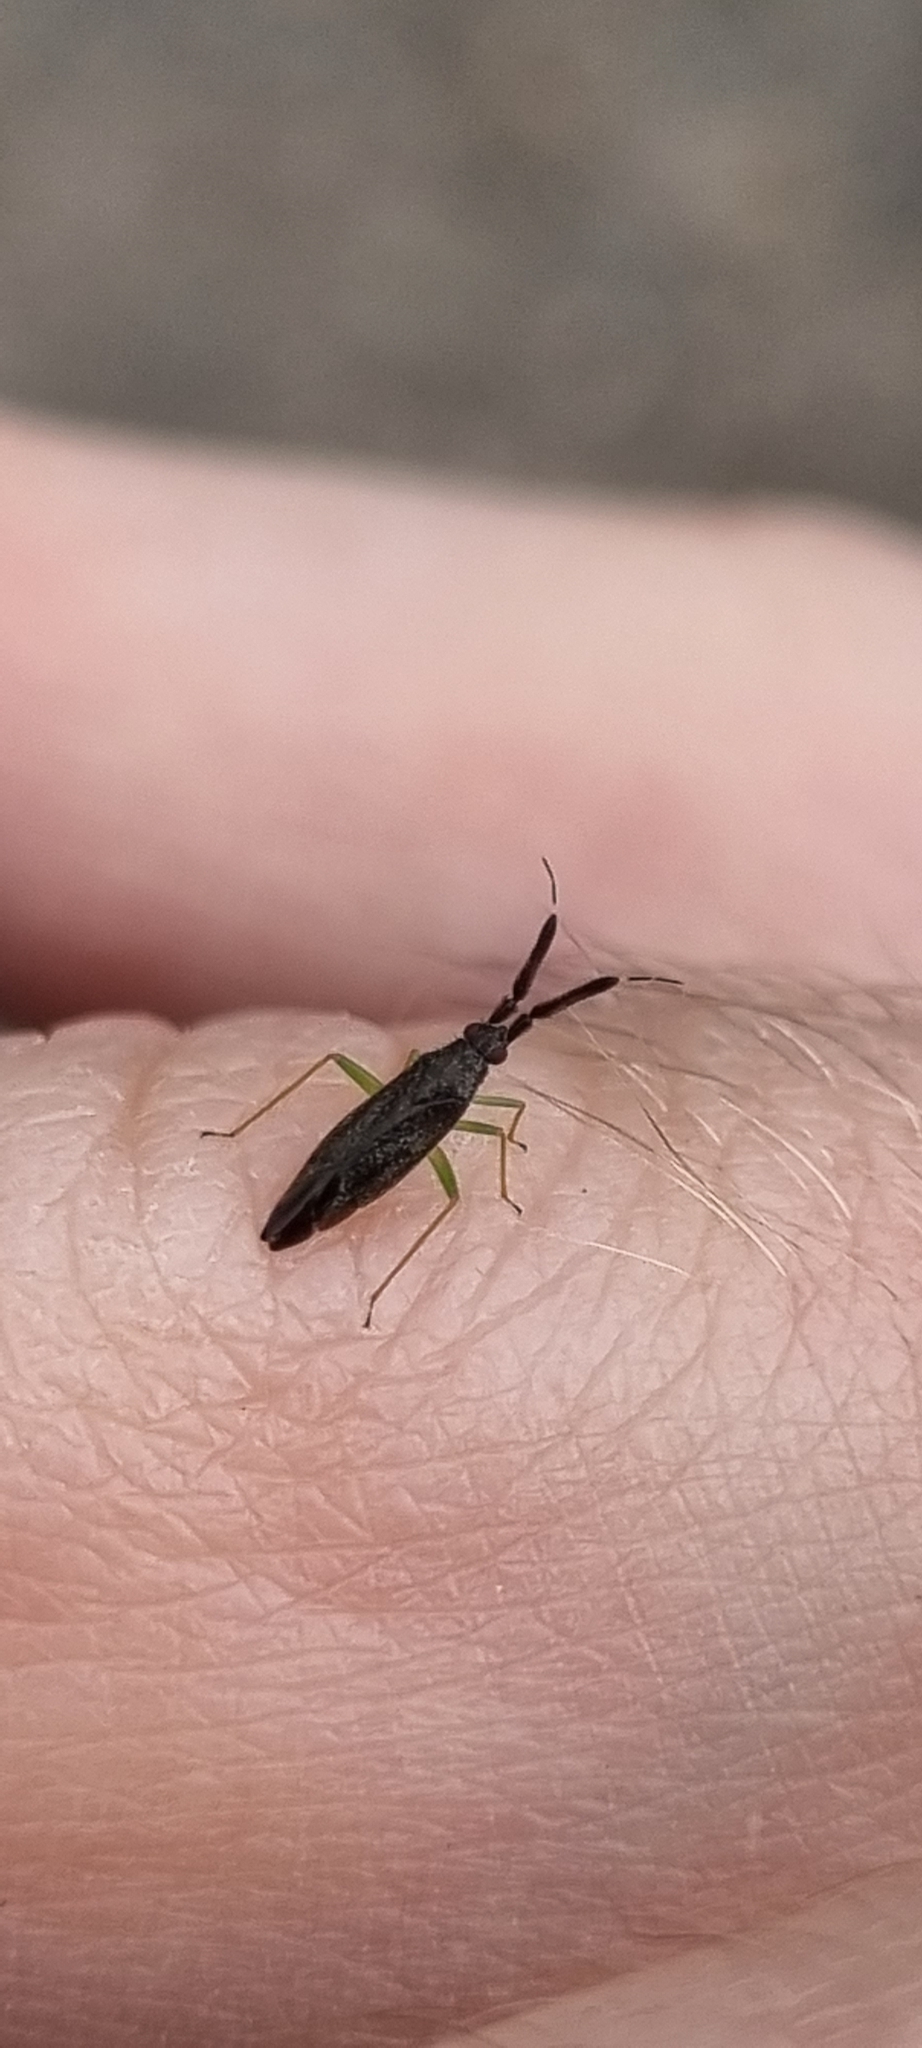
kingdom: Animalia
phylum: Arthropoda
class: Insecta
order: Hemiptera
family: Miridae
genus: Heterotoma
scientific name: Heterotoma planicornis
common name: Plant bug
